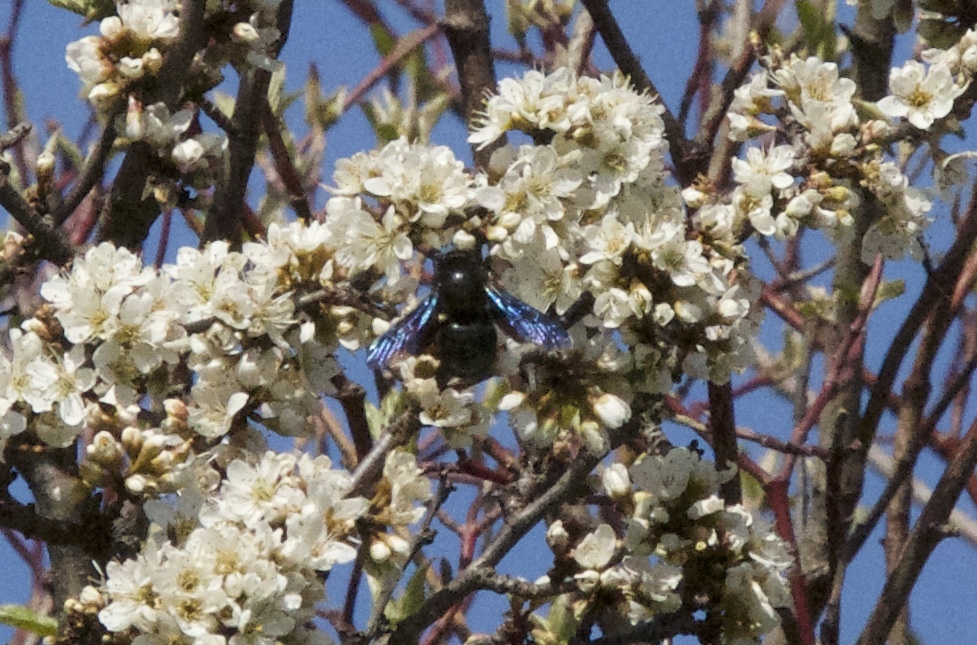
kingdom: Animalia
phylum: Arthropoda
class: Insecta
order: Hymenoptera
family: Apidae
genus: Xylocopa
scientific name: Xylocopa
